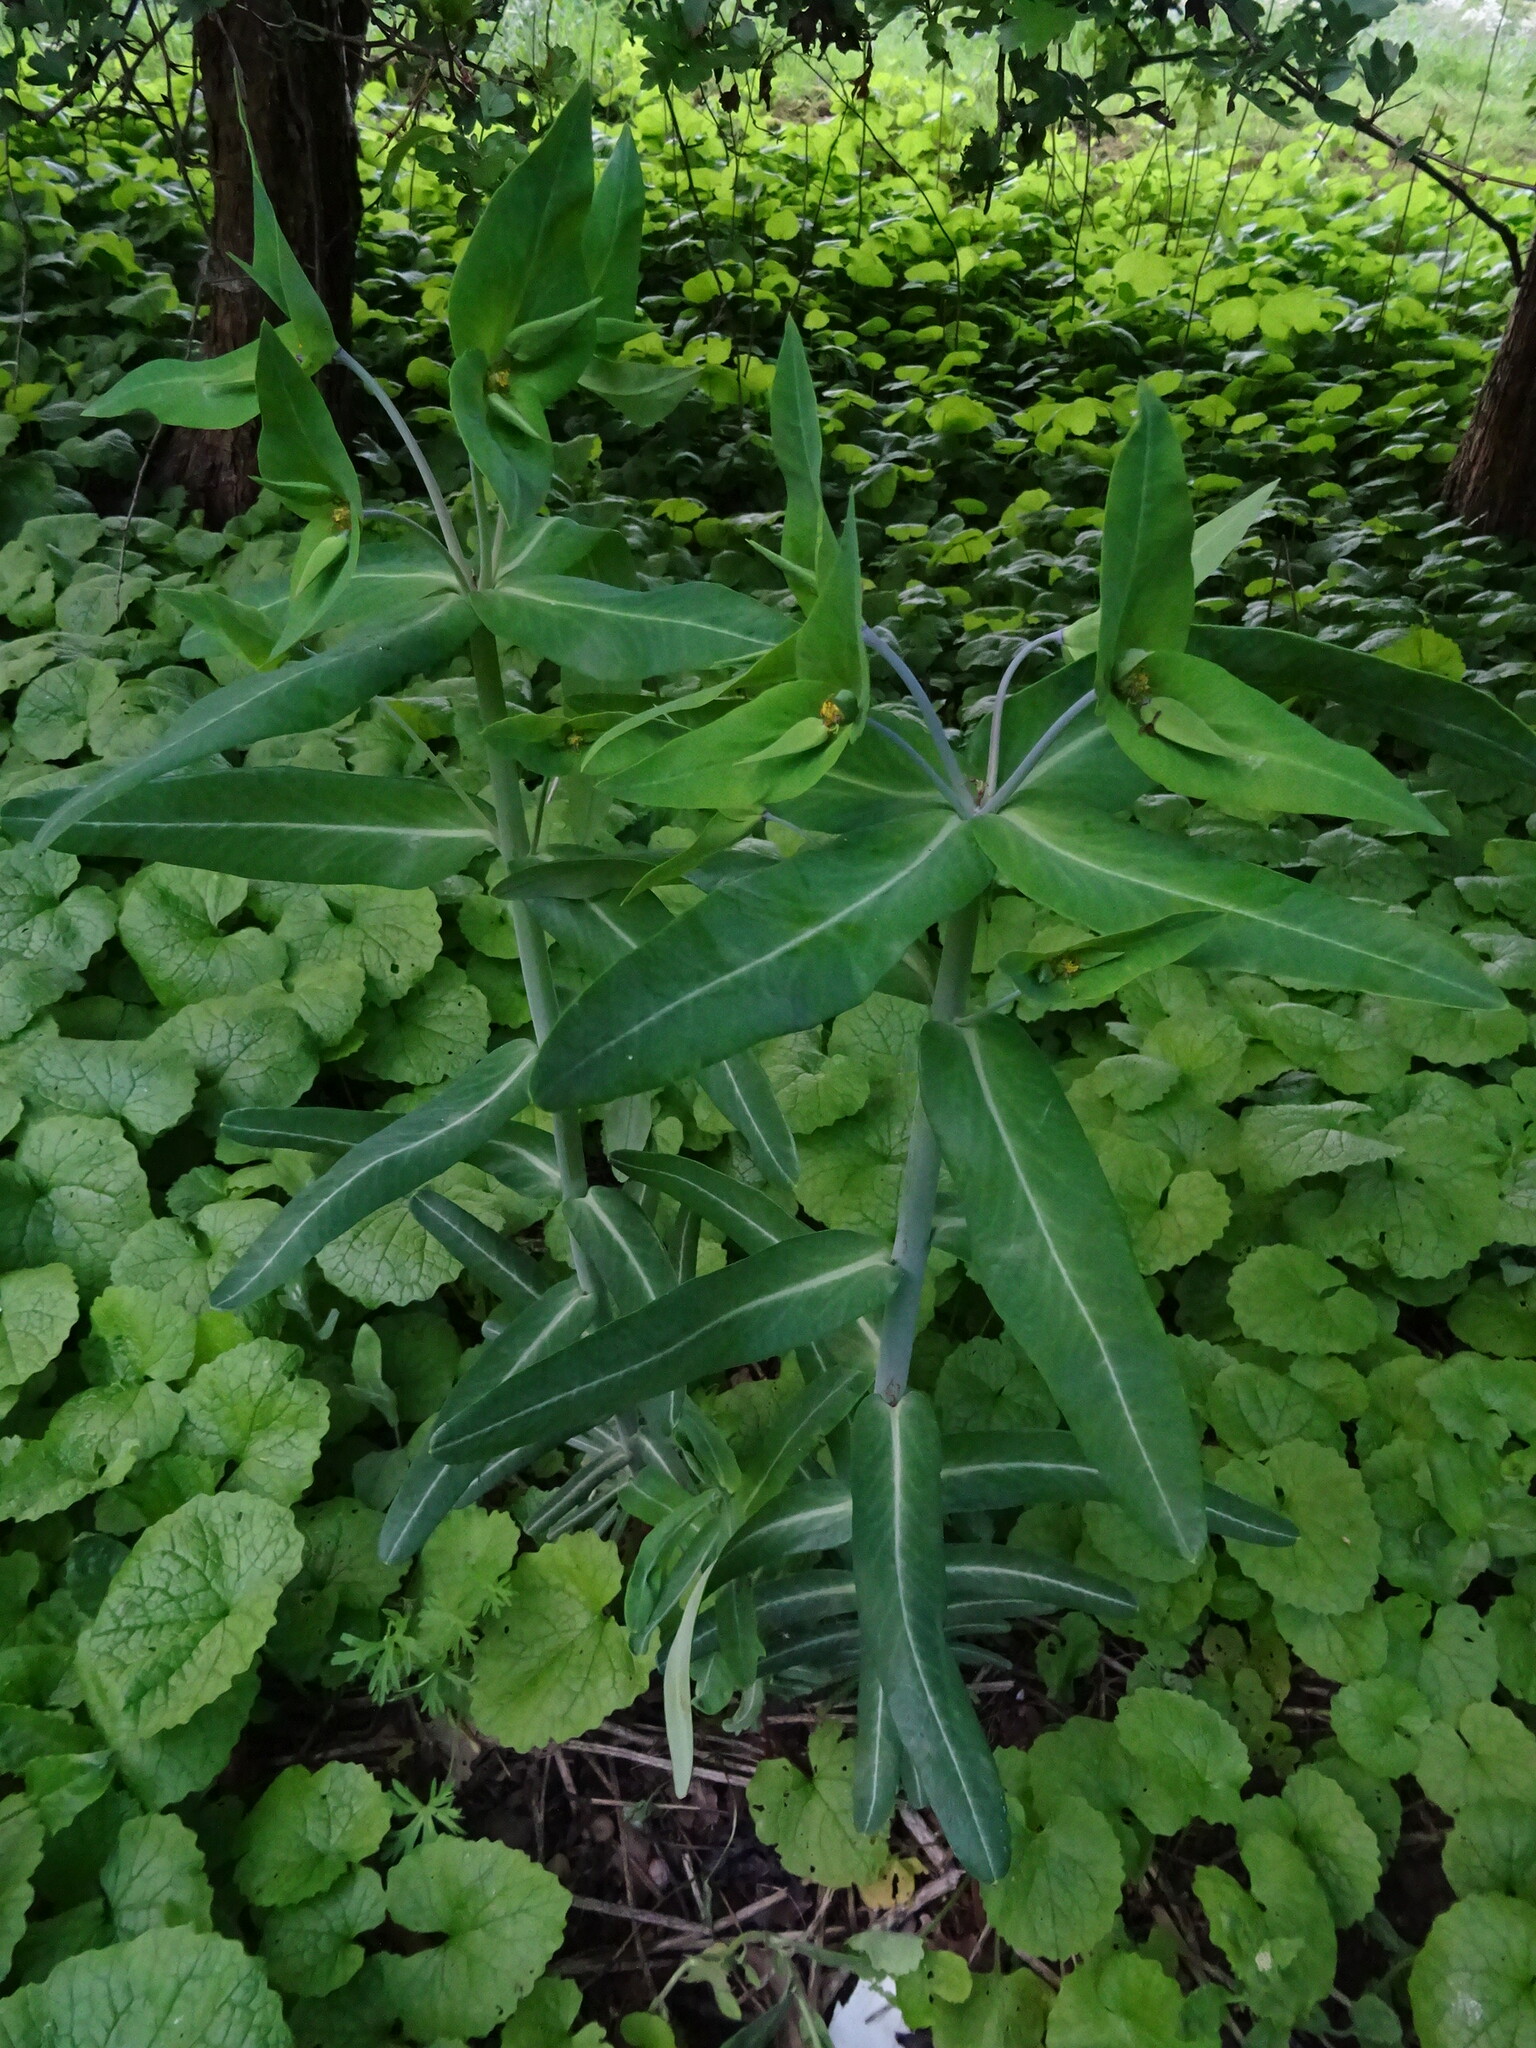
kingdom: Plantae
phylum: Tracheophyta
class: Magnoliopsida
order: Malpighiales
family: Euphorbiaceae
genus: Euphorbia
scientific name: Euphorbia lathyris
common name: Caper spurge
